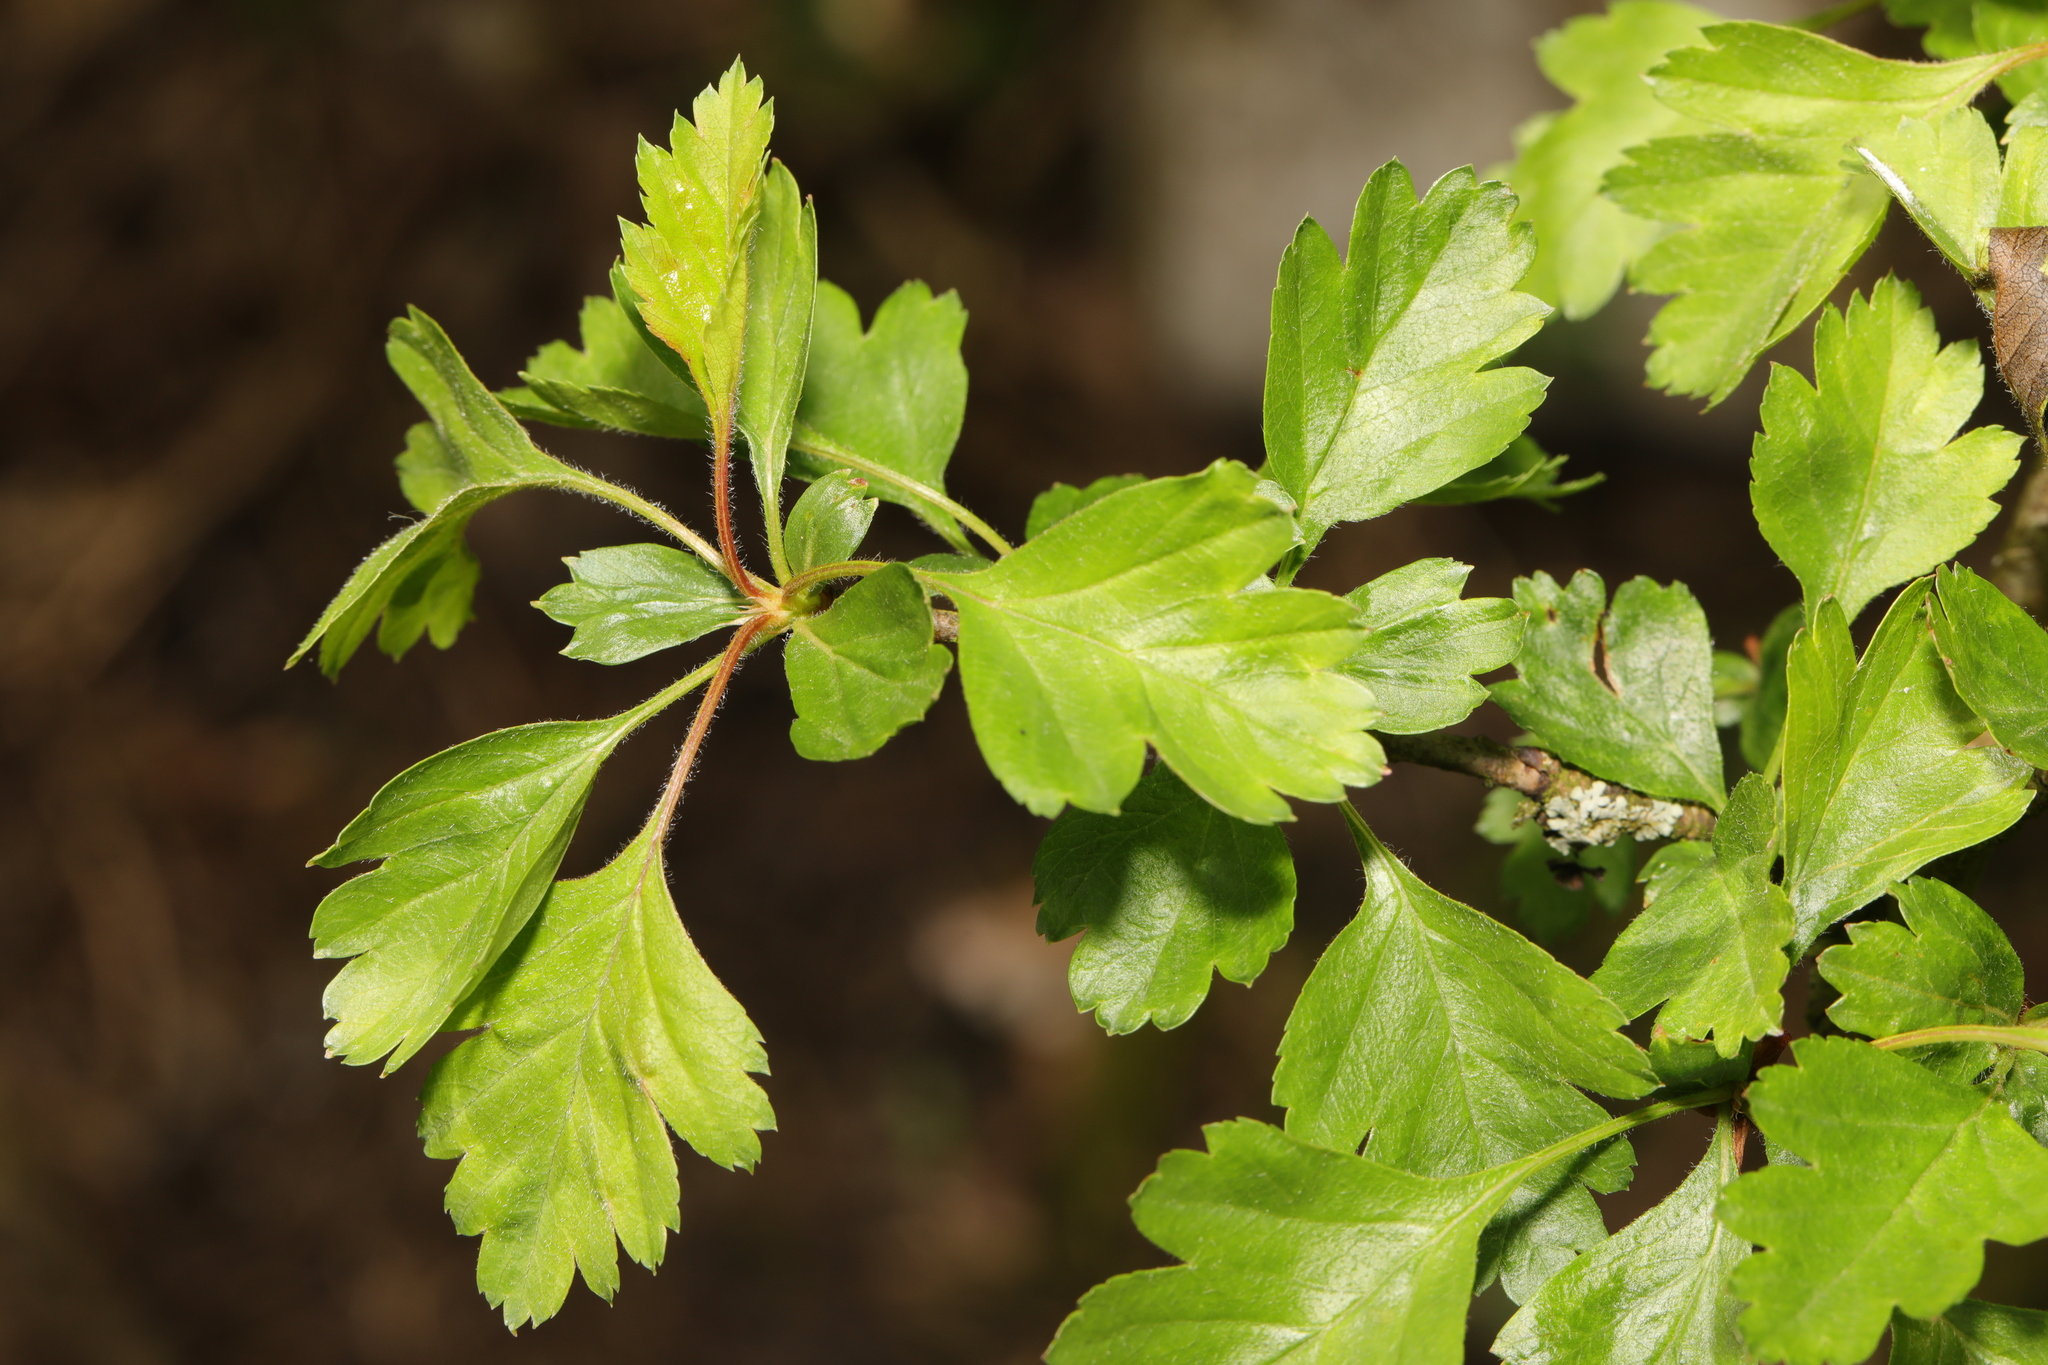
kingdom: Plantae
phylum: Tracheophyta
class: Magnoliopsida
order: Rosales
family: Rosaceae
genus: Crataegus
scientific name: Crataegus monogyna
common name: Hawthorn
